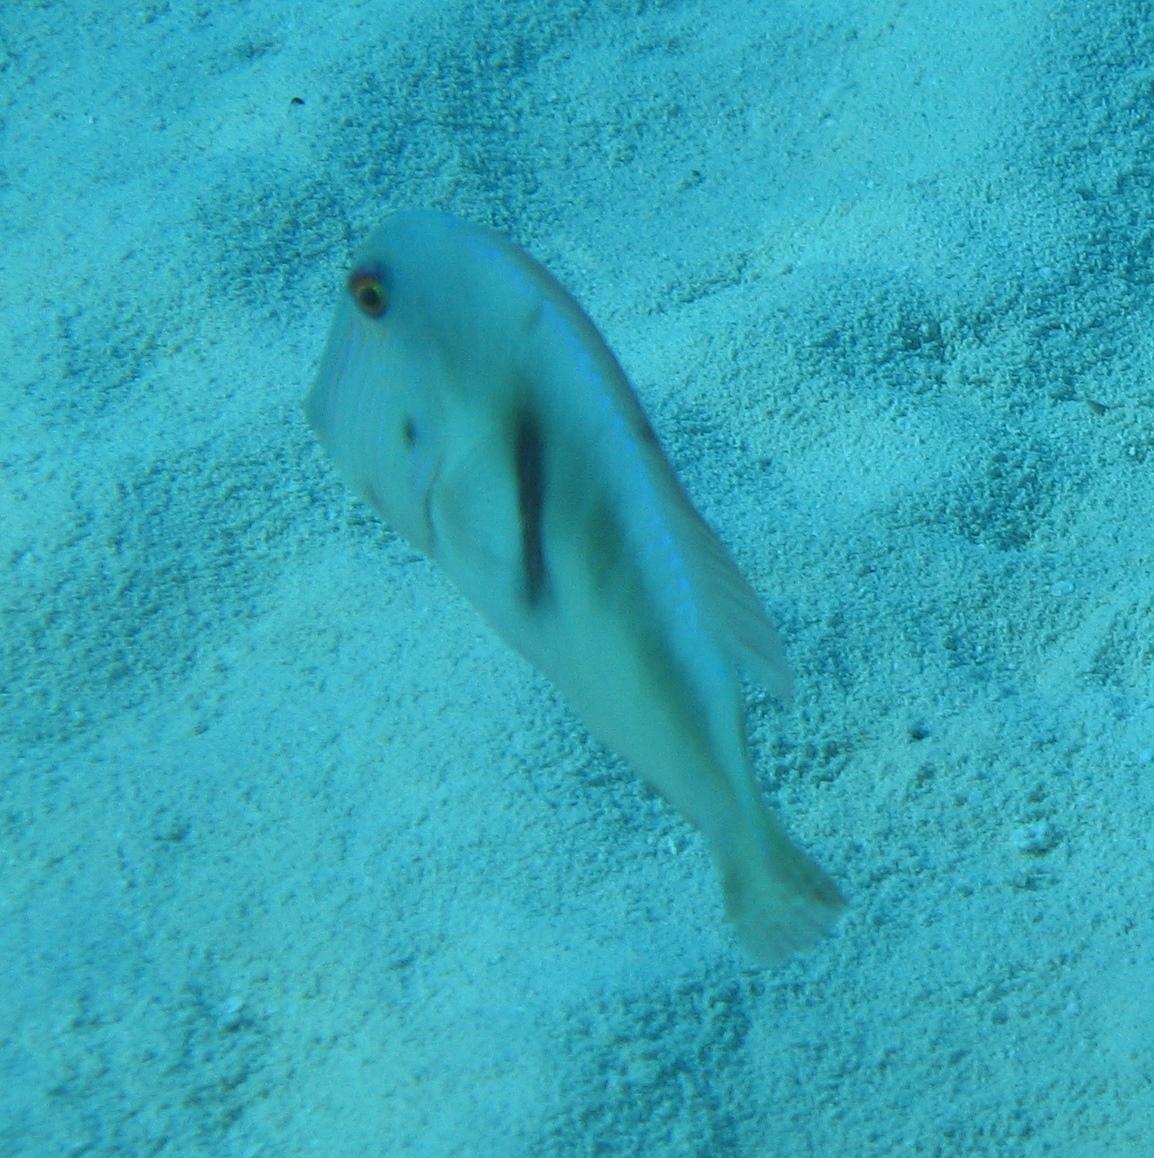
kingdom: Animalia
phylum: Chordata
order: Perciformes
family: Labridae
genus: Xyrichtys
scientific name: Xyrichtys novacula
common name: Pearly razorfish
